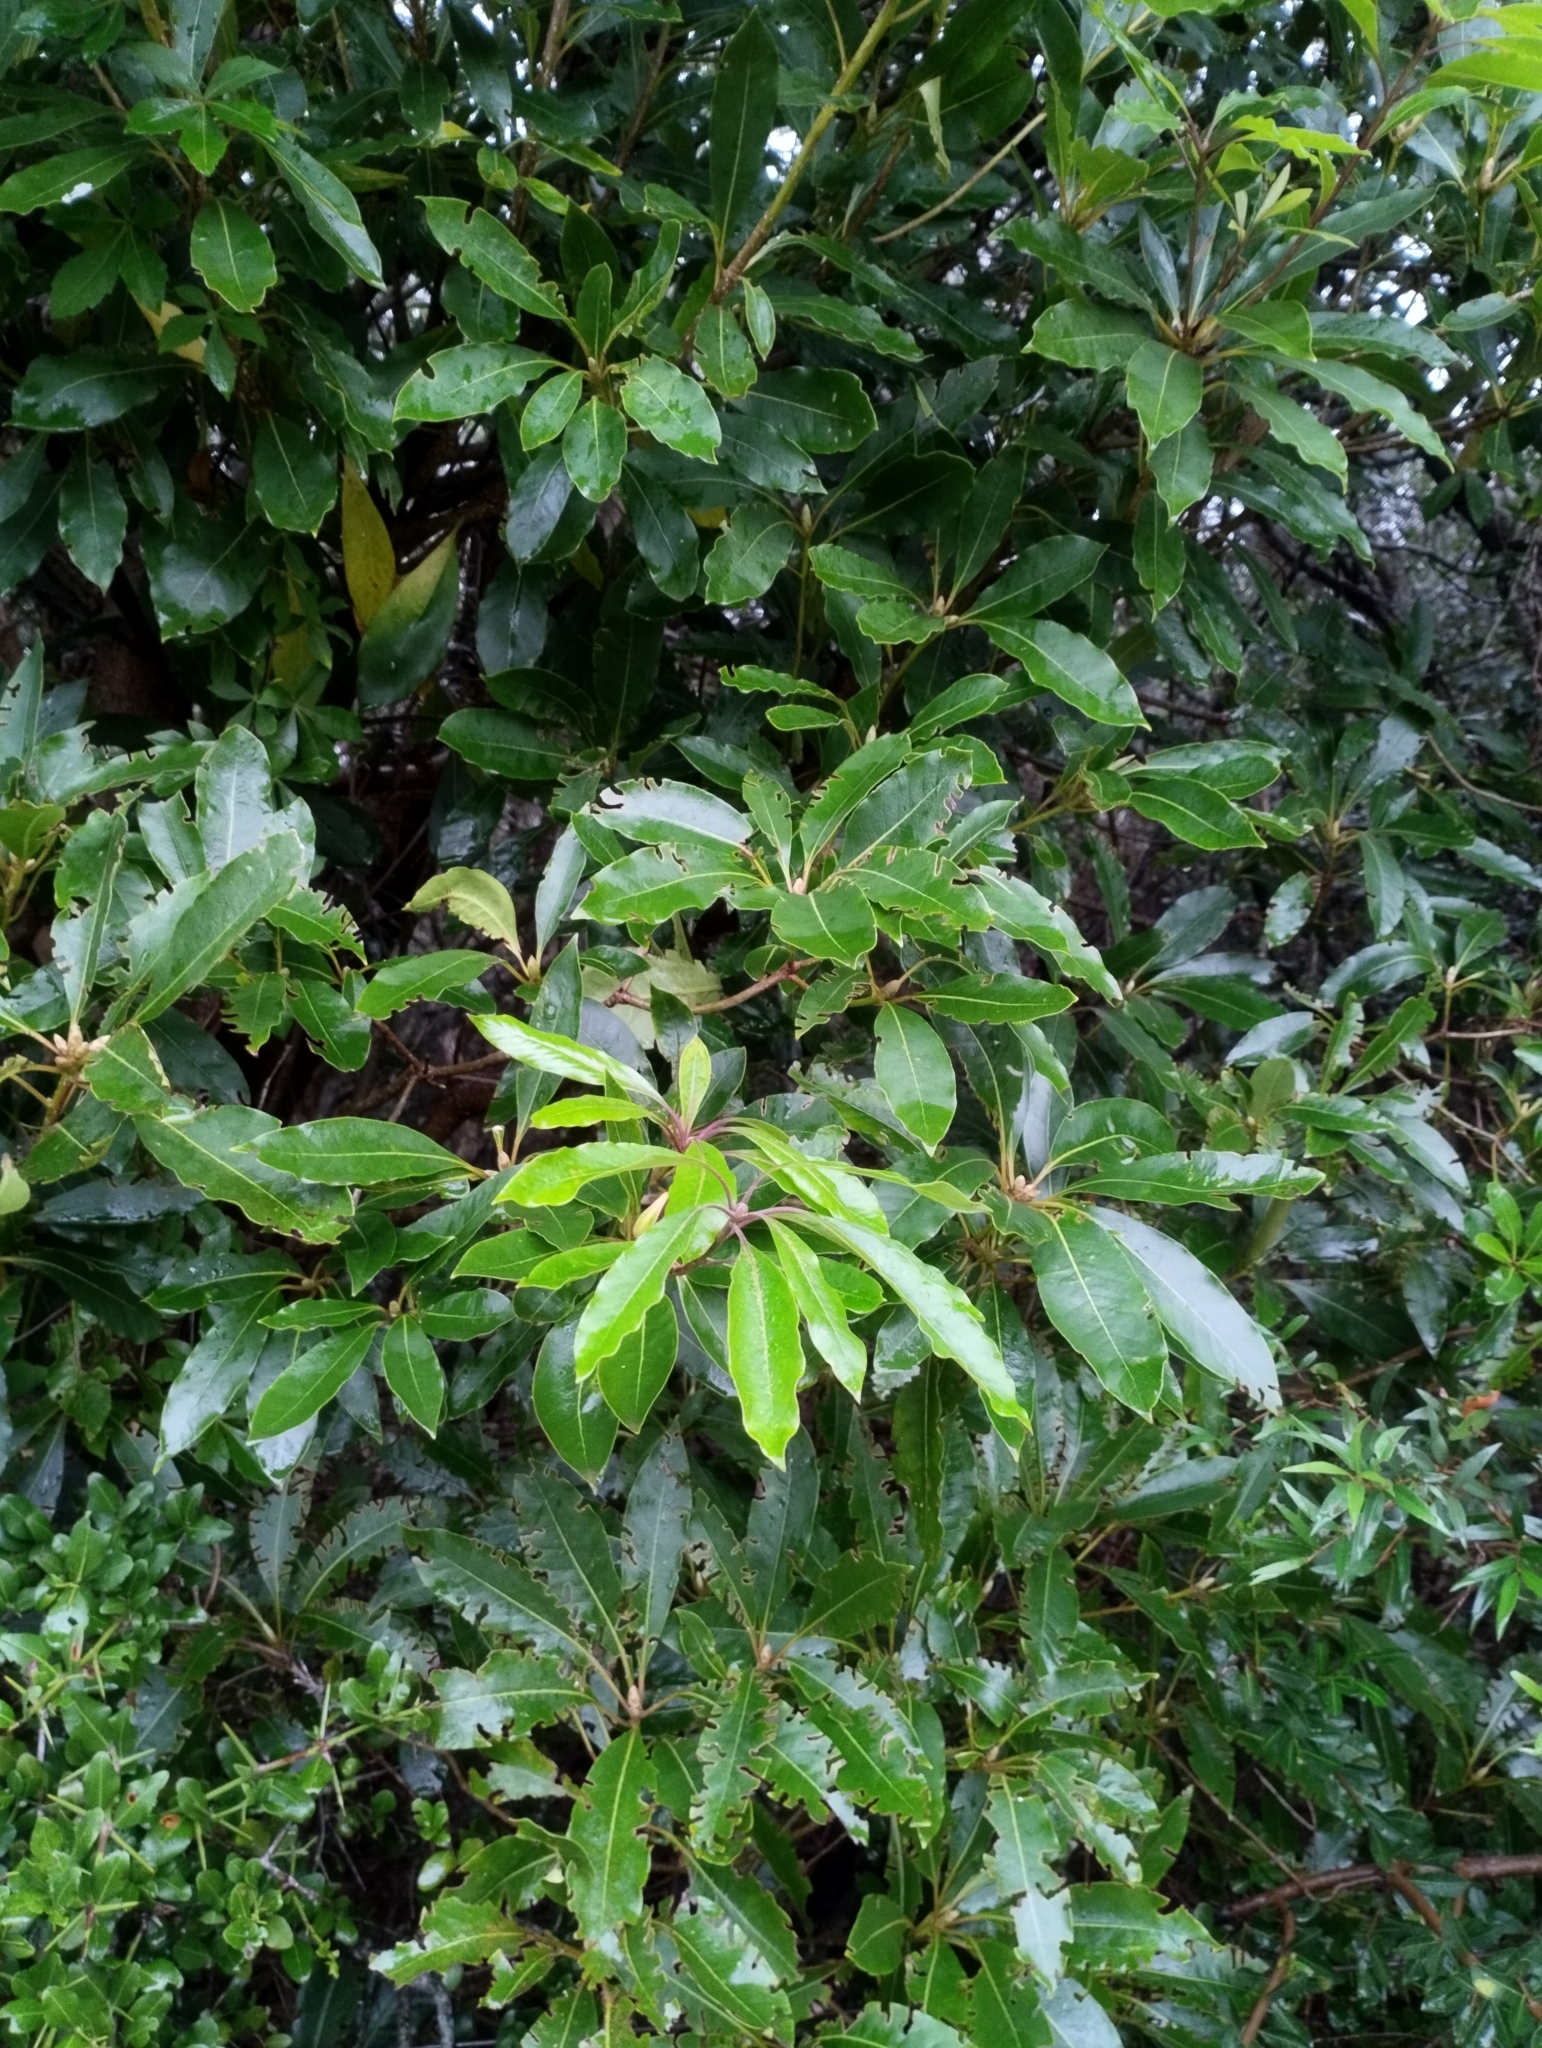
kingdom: Plantae
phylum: Tracheophyta
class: Magnoliopsida
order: Apiales
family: Pittosporaceae
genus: Pittosporum
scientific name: Pittosporum undulatum
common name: Australian cheesewood
